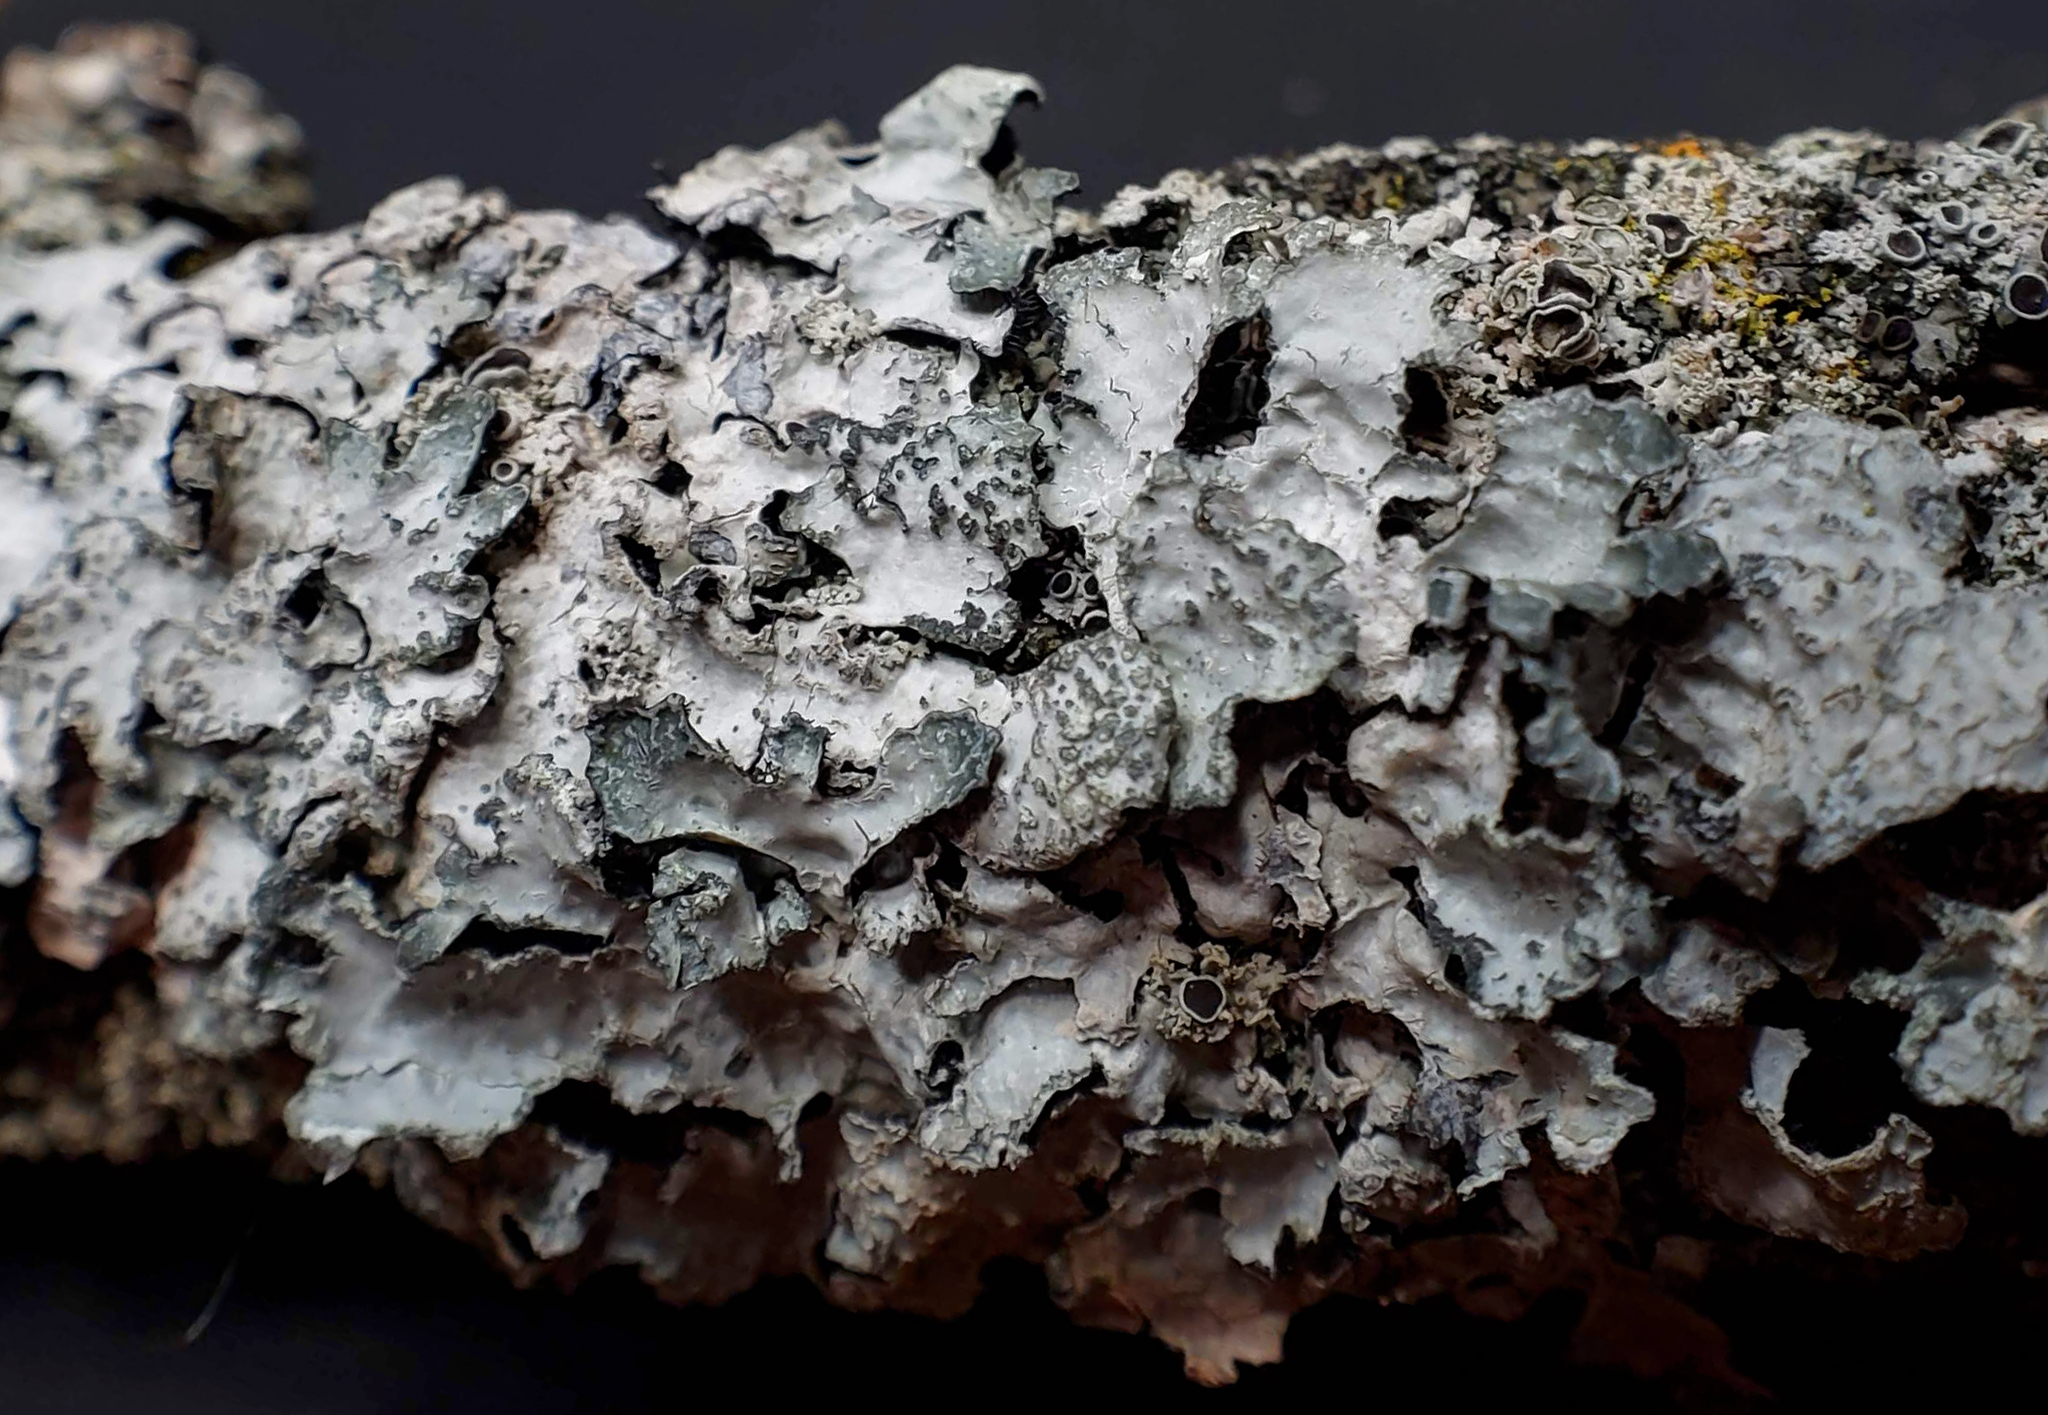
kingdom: Fungi
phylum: Ascomycota
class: Lecanoromycetes
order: Lecanorales
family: Parmeliaceae
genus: Parmelia
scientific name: Parmelia sulcata
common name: Netted shield lichen
